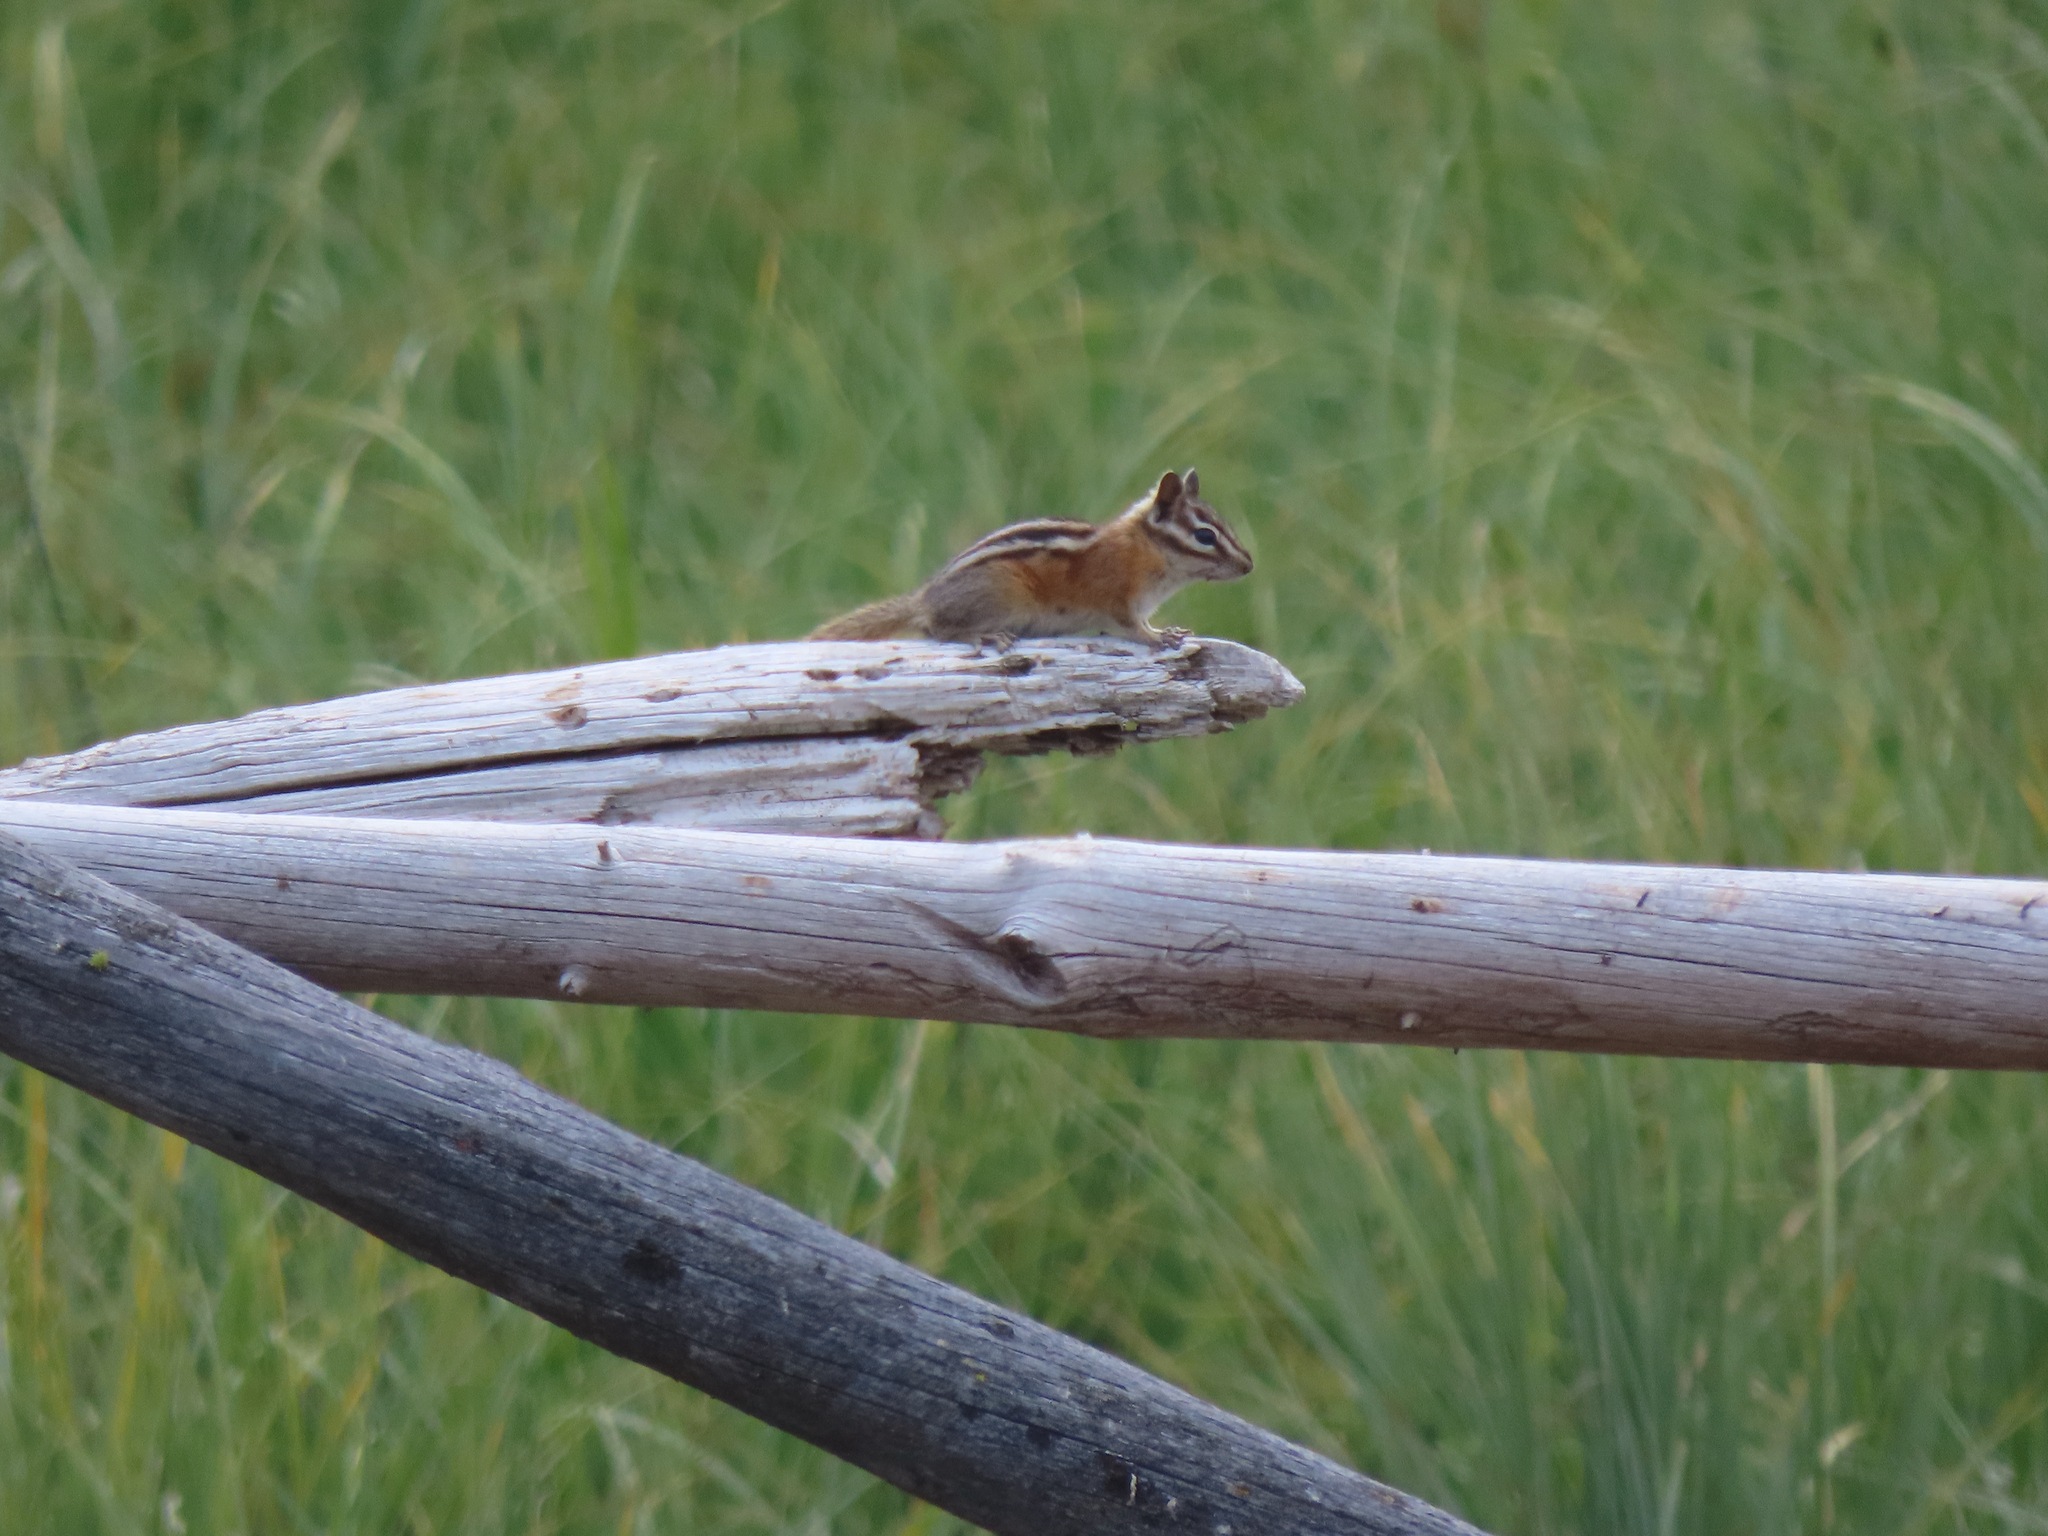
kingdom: Animalia
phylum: Chordata
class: Mammalia
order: Rodentia
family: Sciuridae
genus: Tamias
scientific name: Tamias amoenus
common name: Yellow-pine chipmunk
